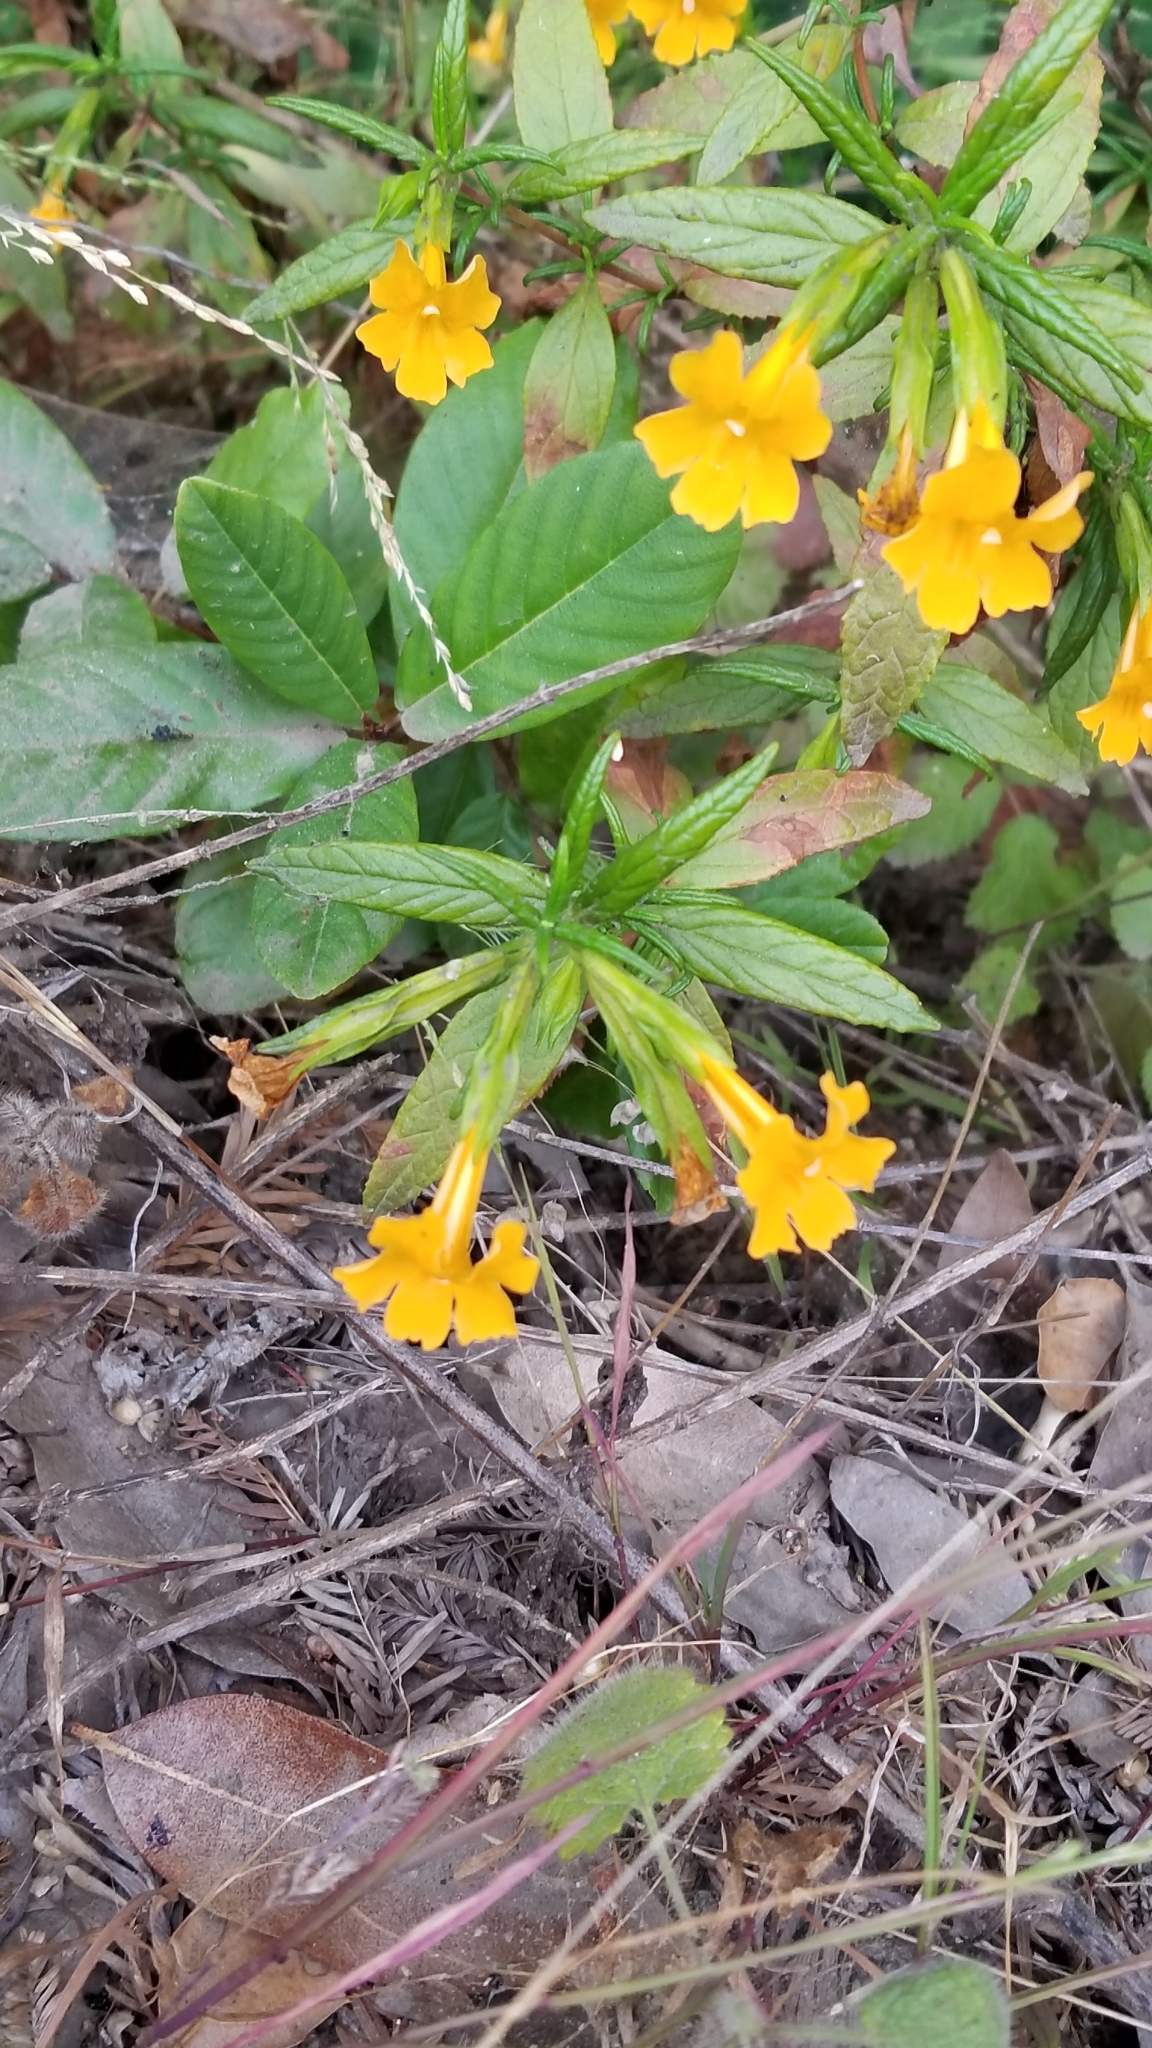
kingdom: Plantae
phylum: Tracheophyta
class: Magnoliopsida
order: Lamiales
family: Phrymaceae
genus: Diplacus
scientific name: Diplacus aurantiacus
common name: Bush monkey-flower
